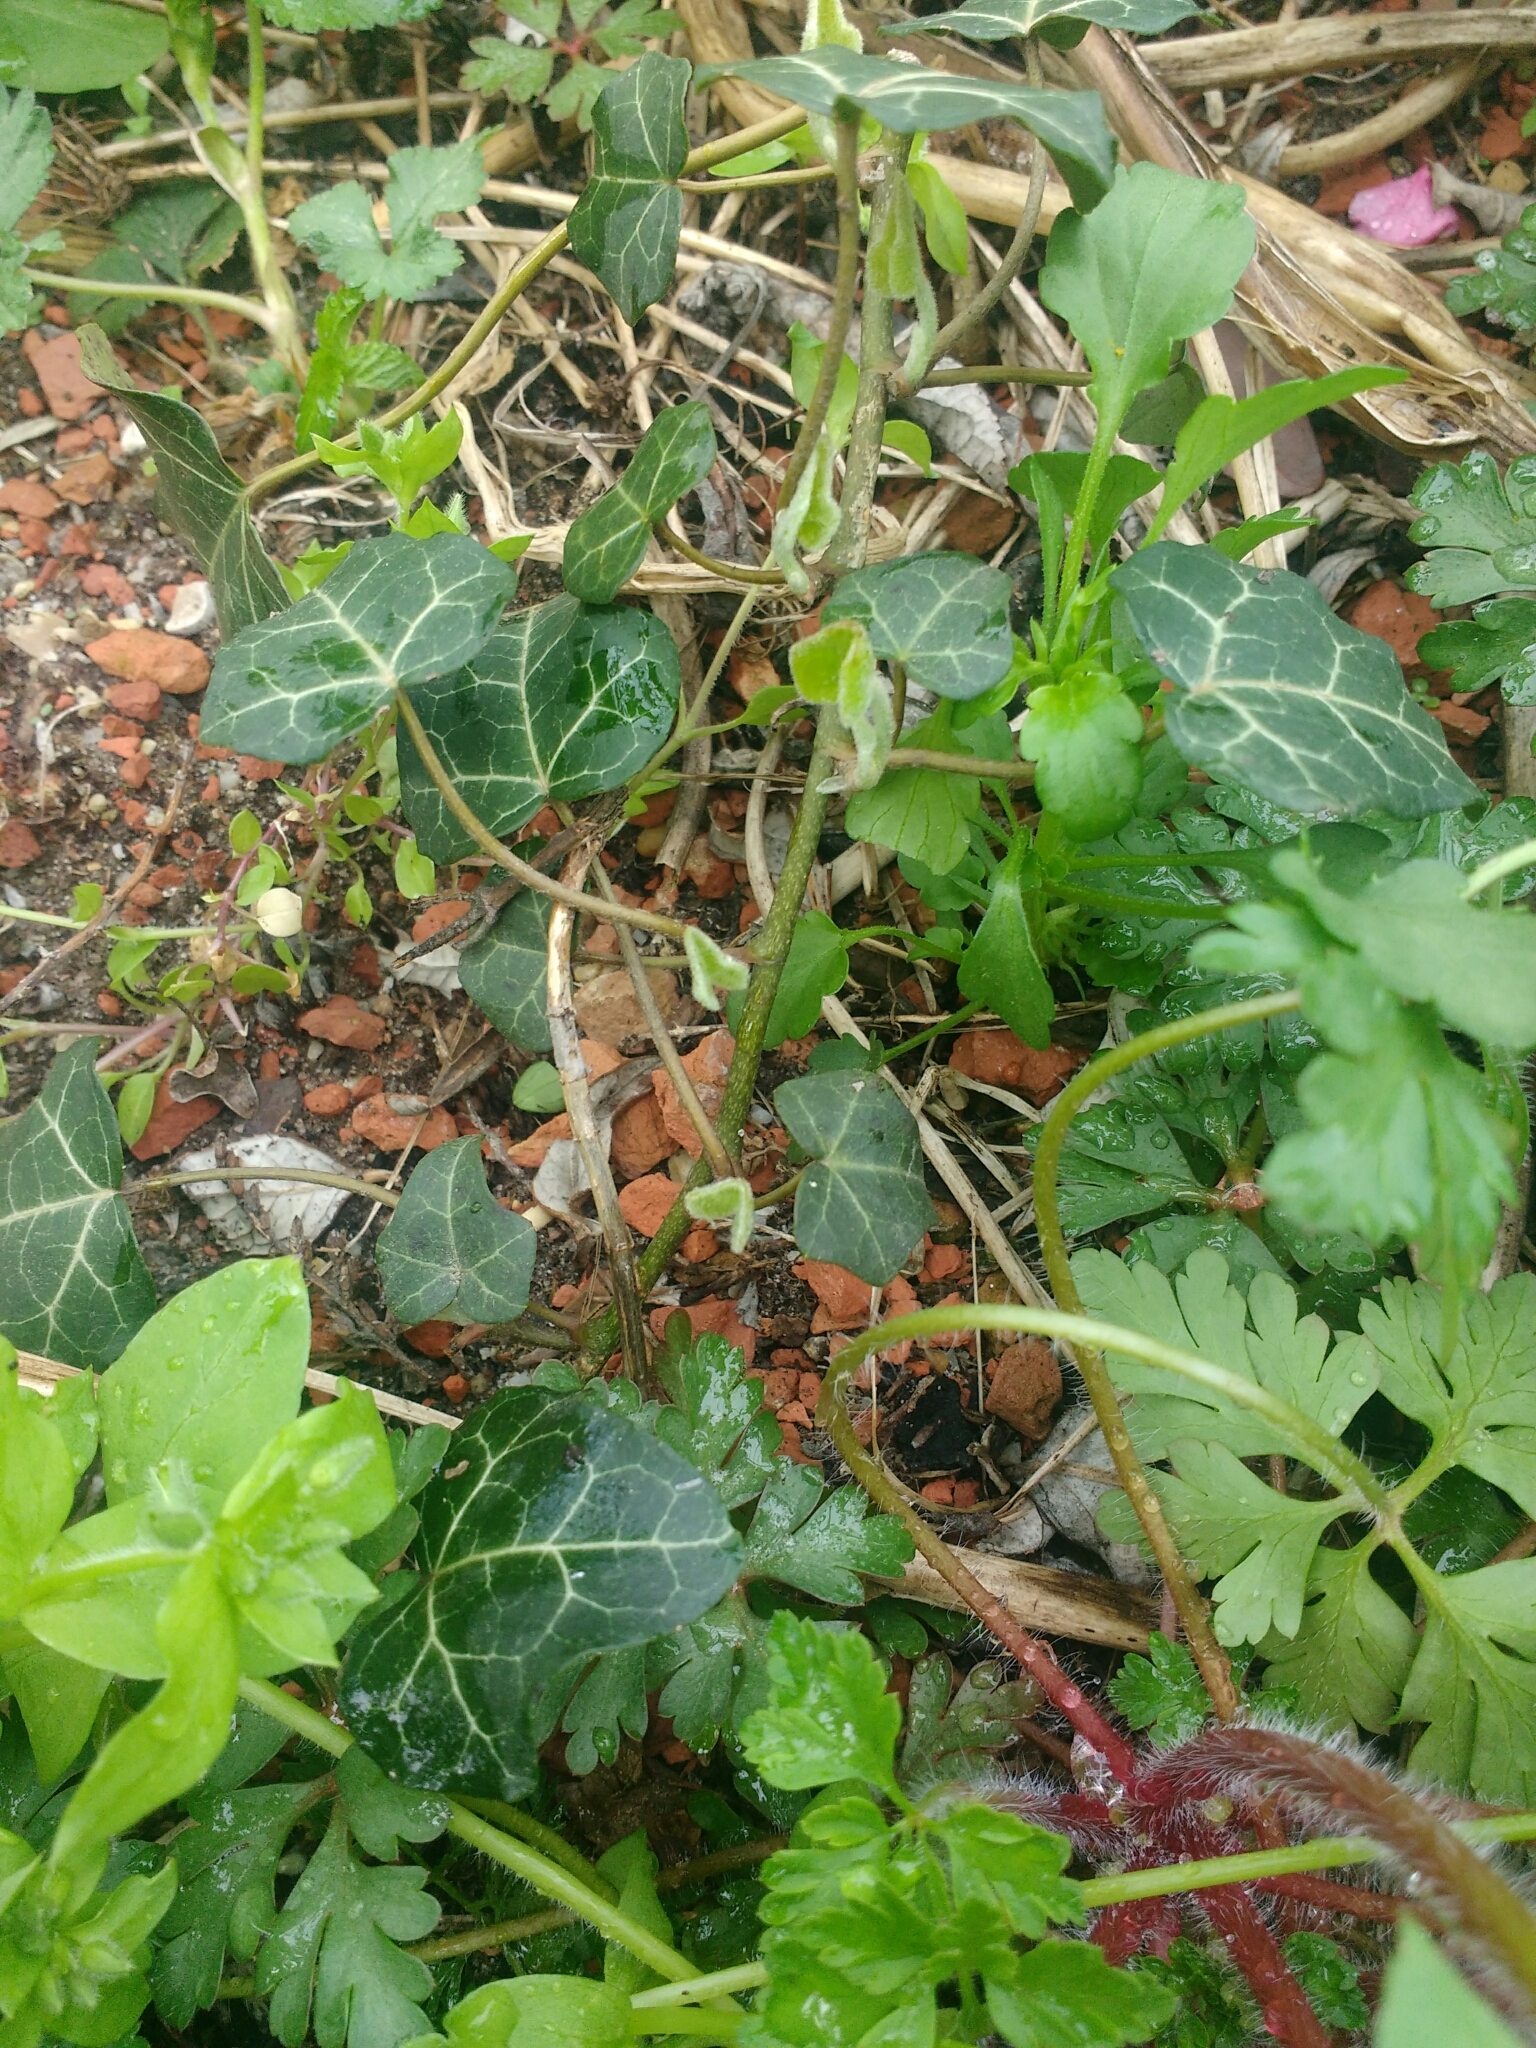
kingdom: Plantae
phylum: Tracheophyta
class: Magnoliopsida
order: Apiales
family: Araliaceae
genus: Hedera
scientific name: Hedera helix
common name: Ivy
